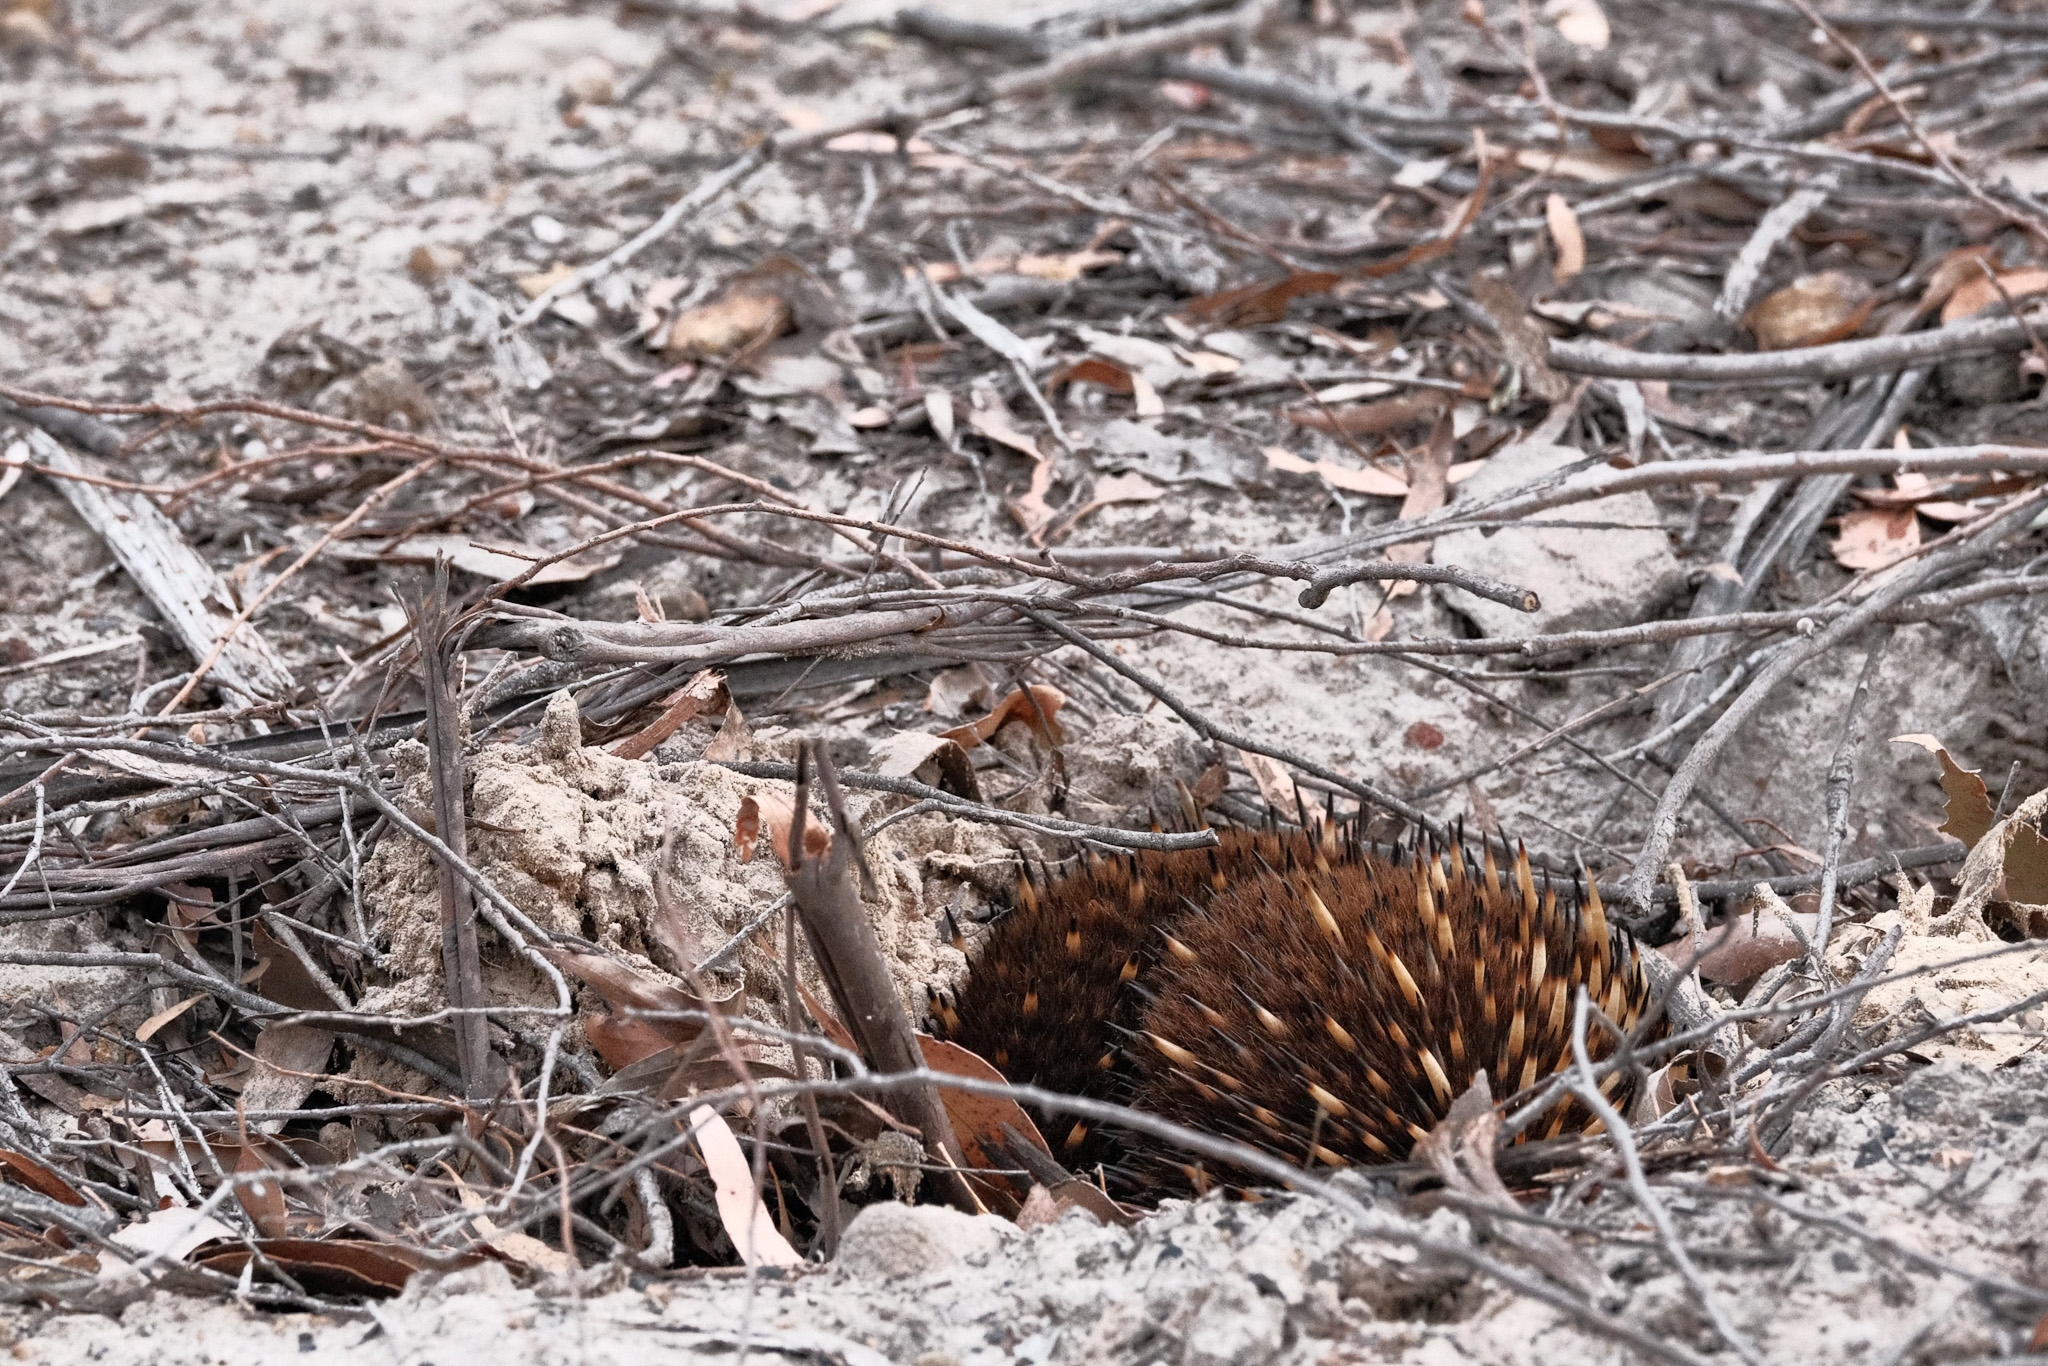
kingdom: Animalia
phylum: Chordata
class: Mammalia
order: Monotremata
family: Tachyglossidae
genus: Tachyglossus
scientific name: Tachyglossus aculeatus
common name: Short-beaked echidna
